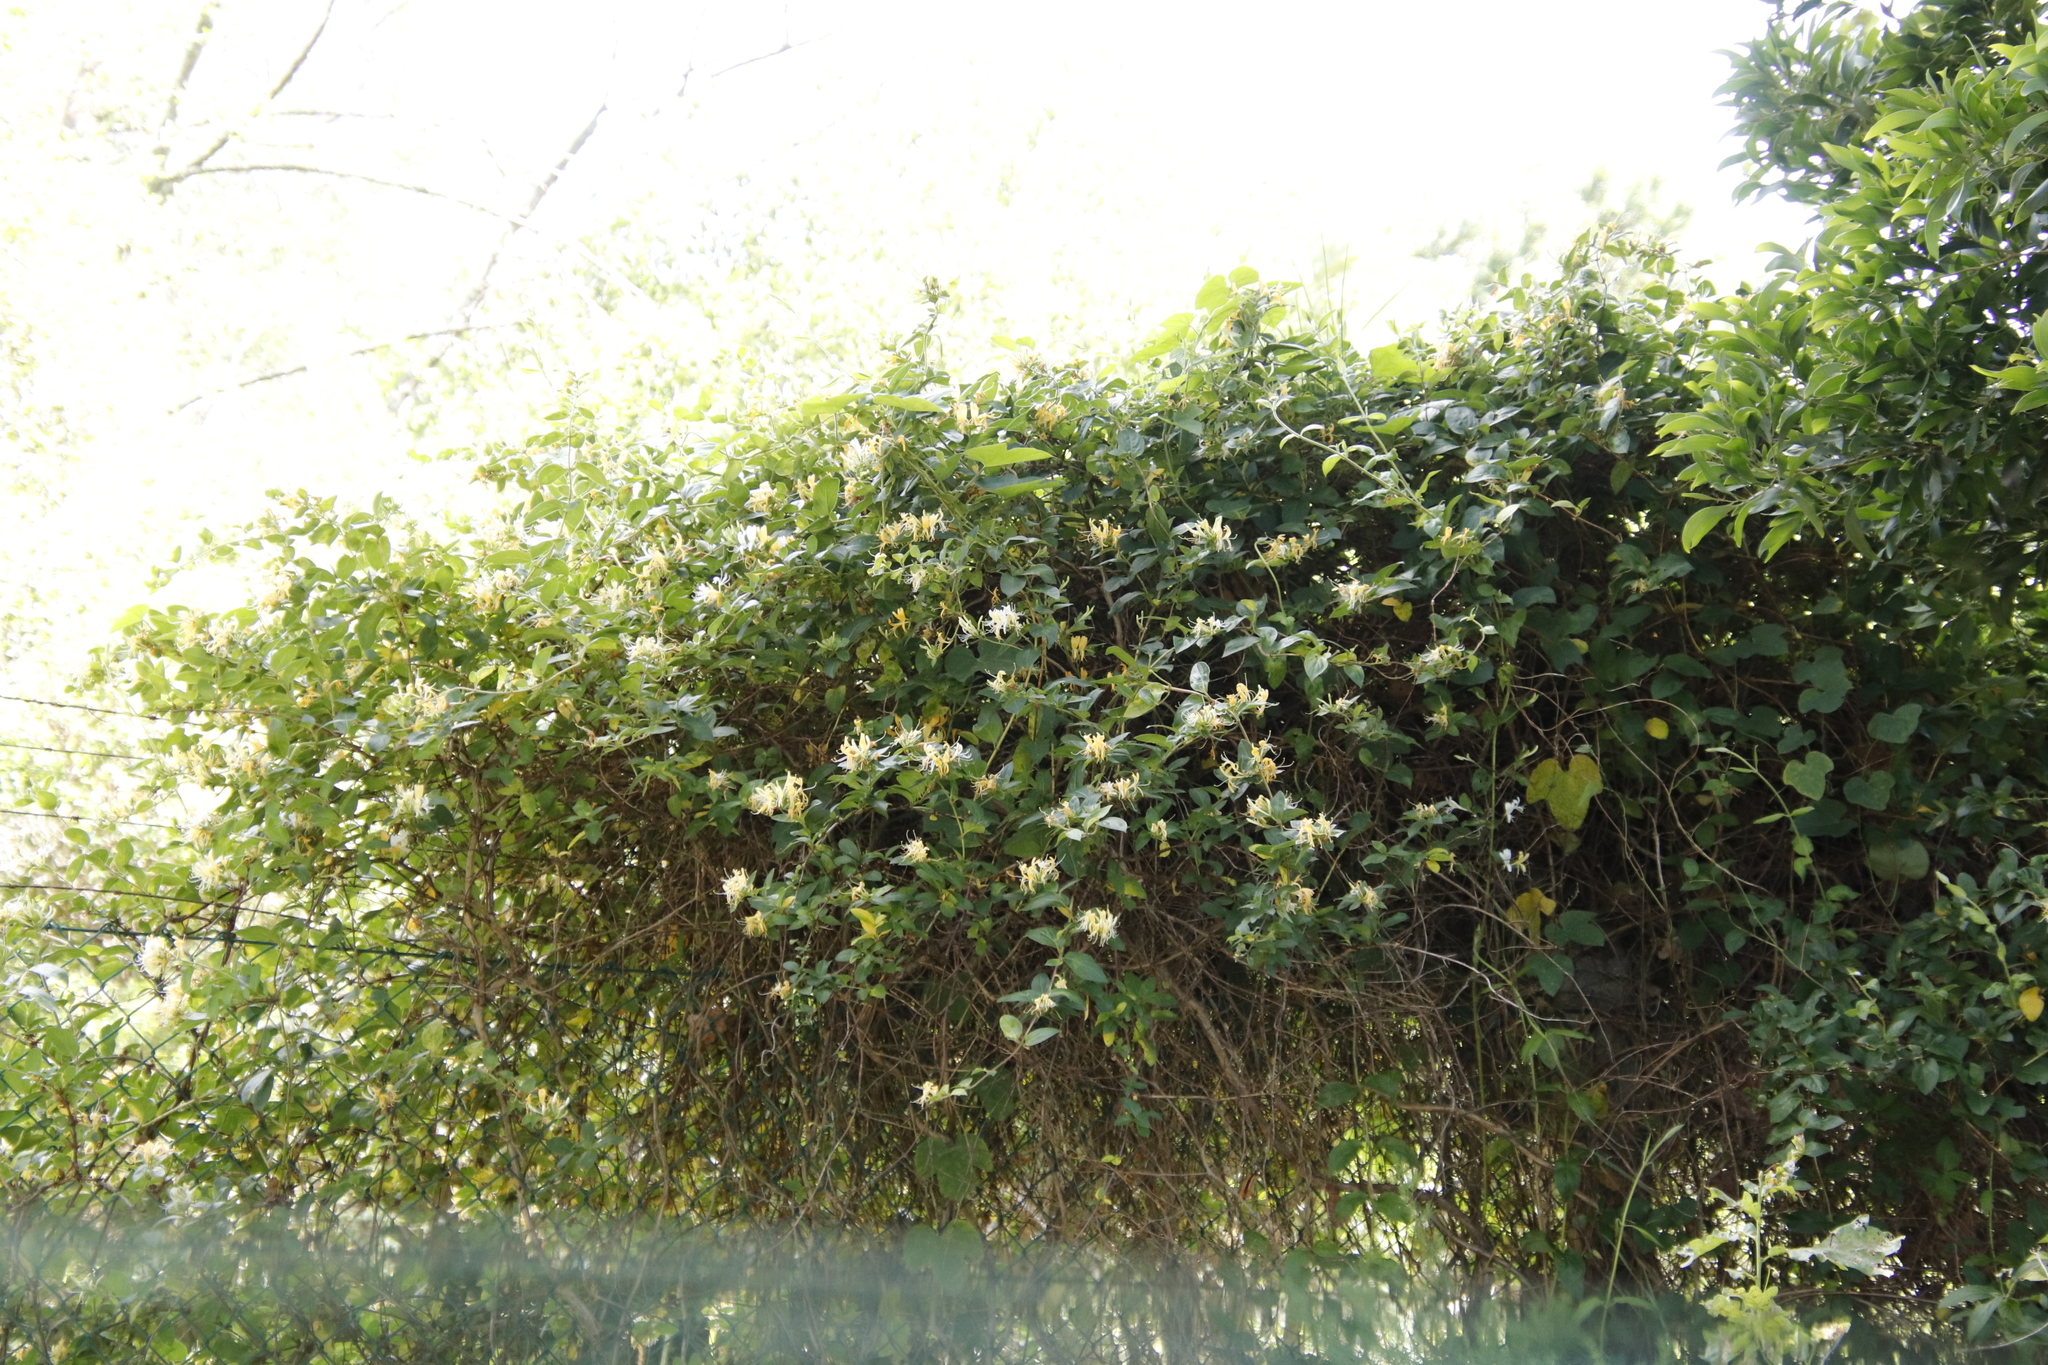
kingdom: Plantae
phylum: Tracheophyta
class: Magnoliopsida
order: Dipsacales
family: Caprifoliaceae
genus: Lonicera
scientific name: Lonicera japonica
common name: Japanese honeysuckle
